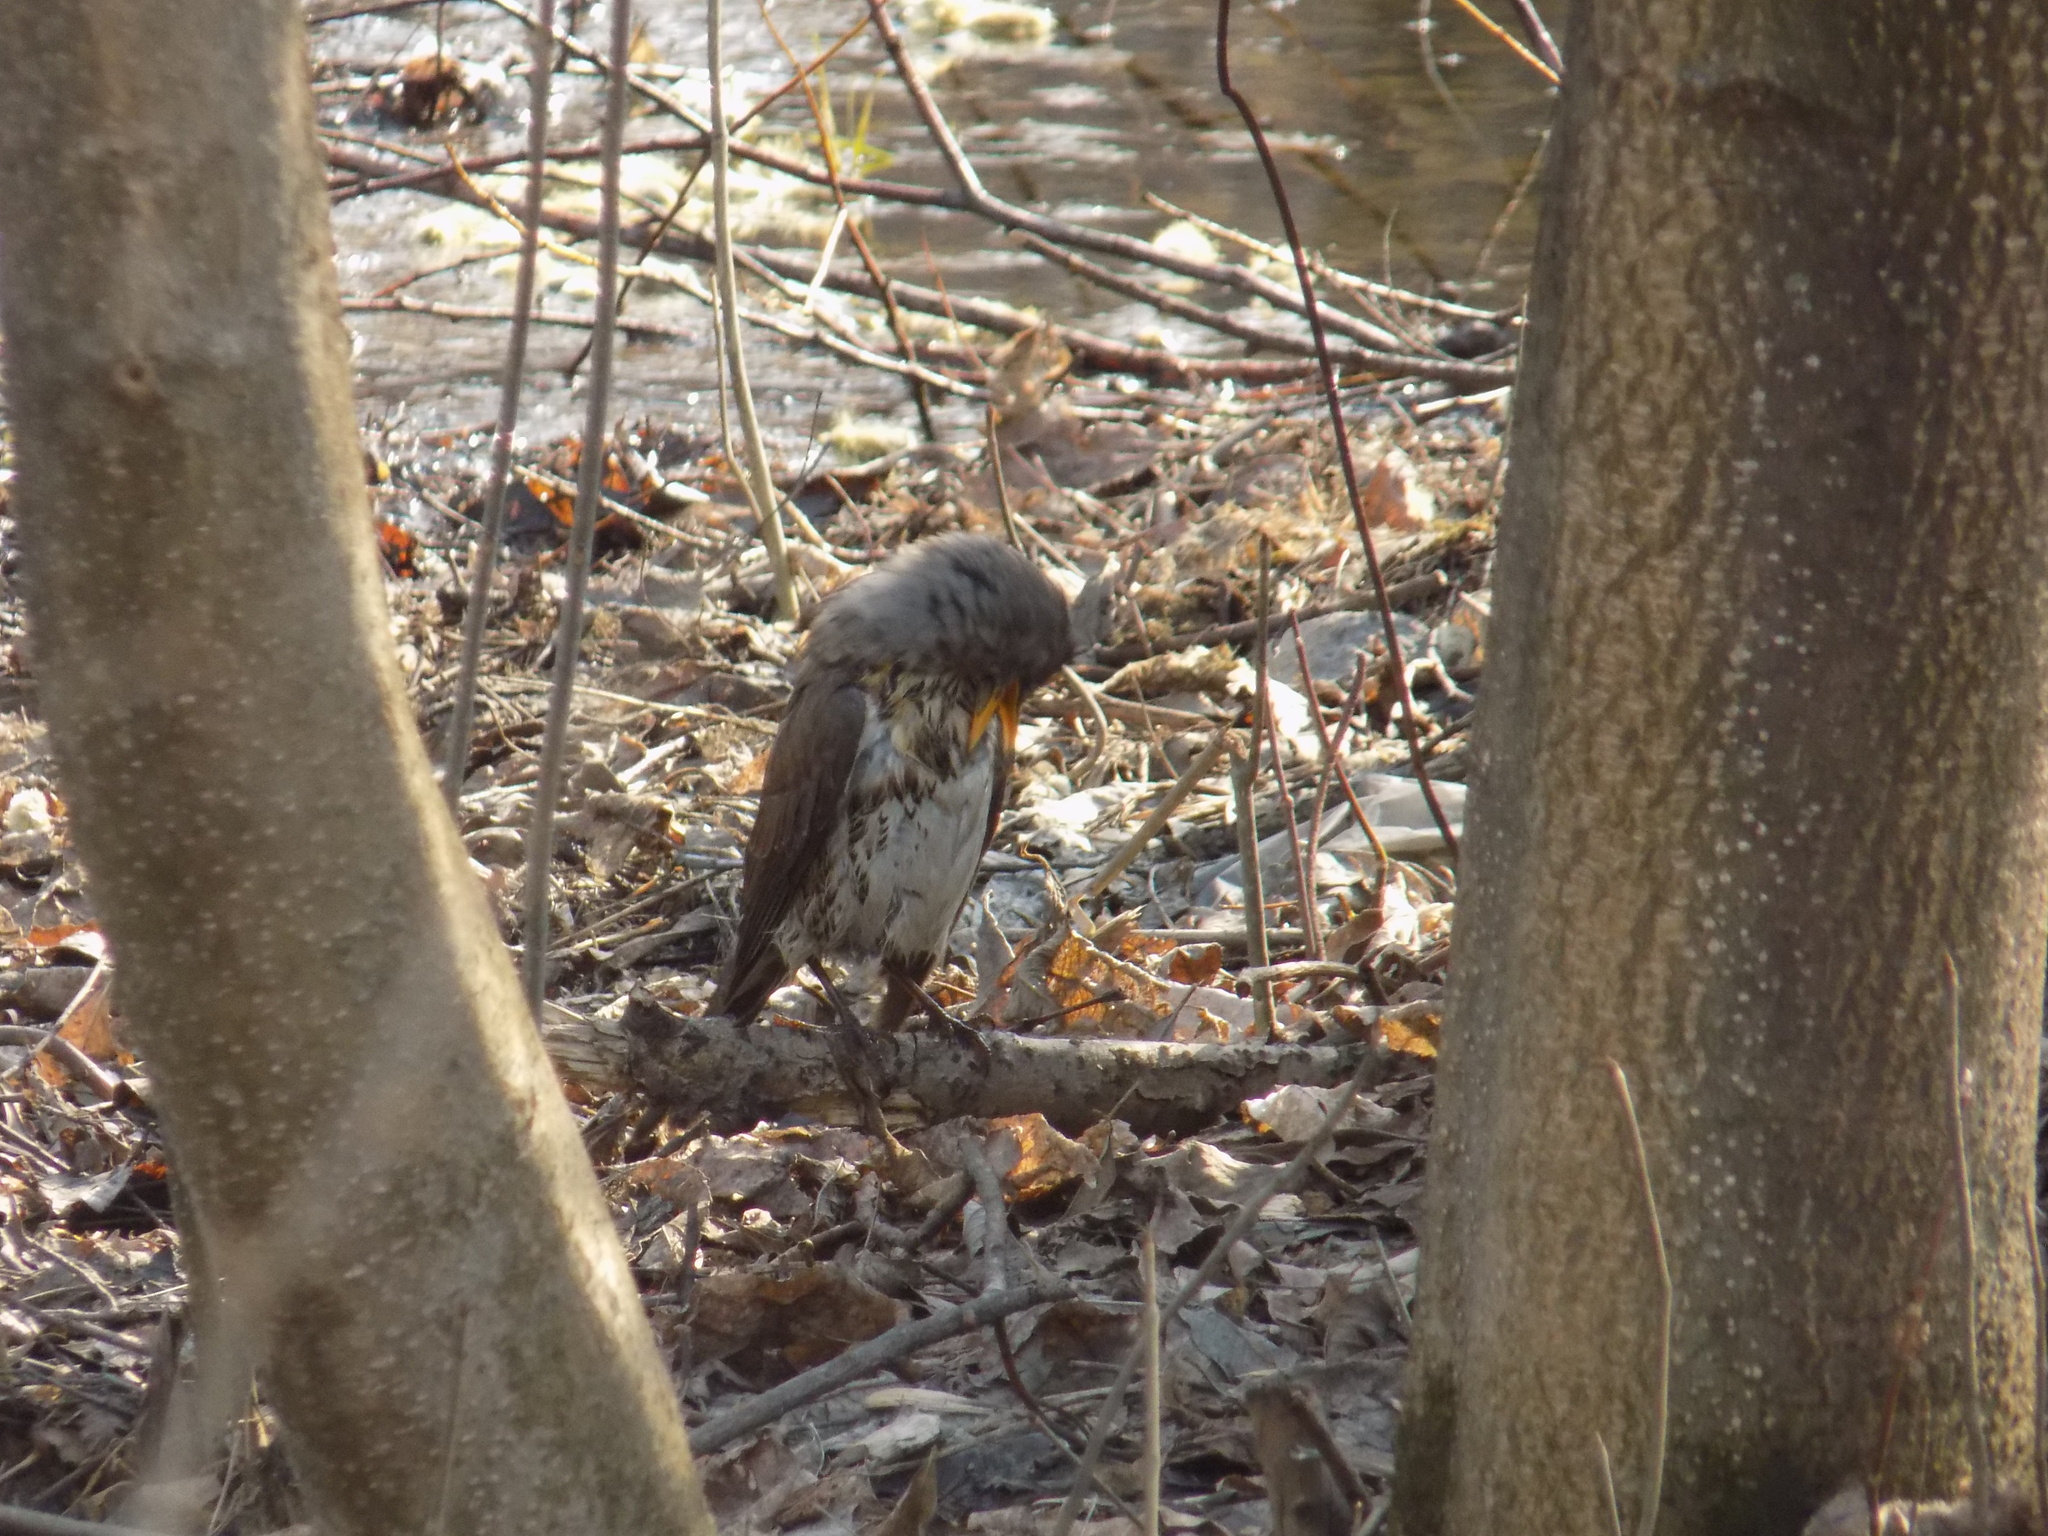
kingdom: Animalia
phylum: Chordata
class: Aves
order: Passeriformes
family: Turdidae
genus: Turdus
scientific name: Turdus pilaris
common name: Fieldfare
